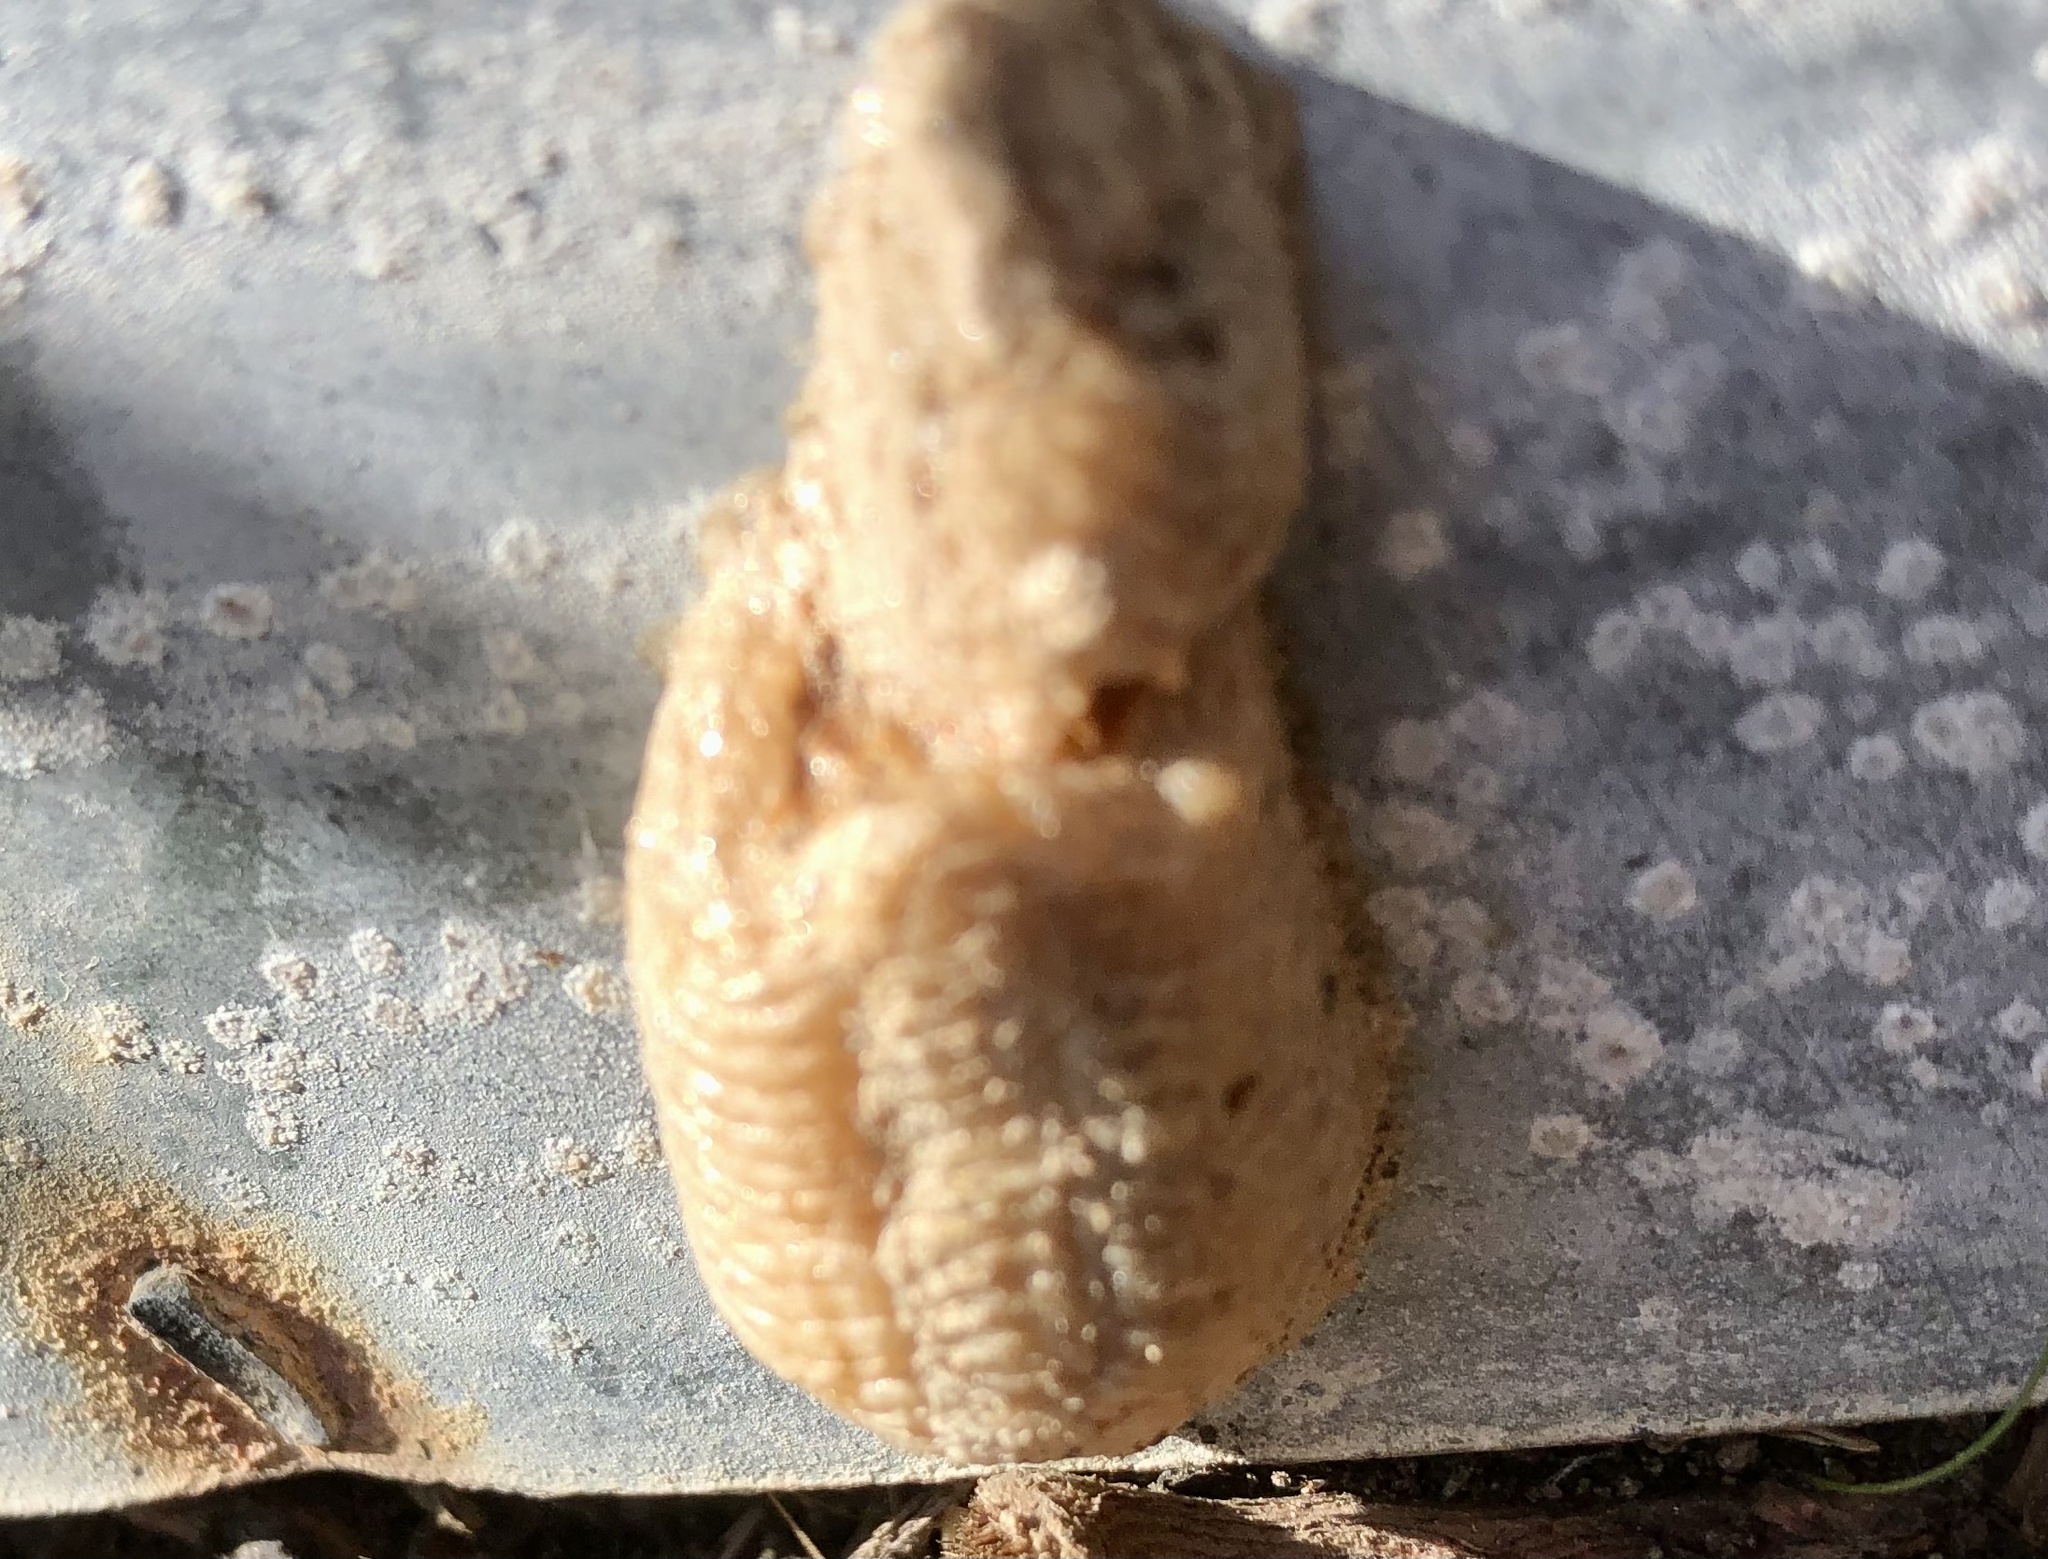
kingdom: Animalia
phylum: Arthropoda
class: Insecta
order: Mantodea
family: Mantidae
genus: Mantis
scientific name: Mantis religiosa
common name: Praying mantis
